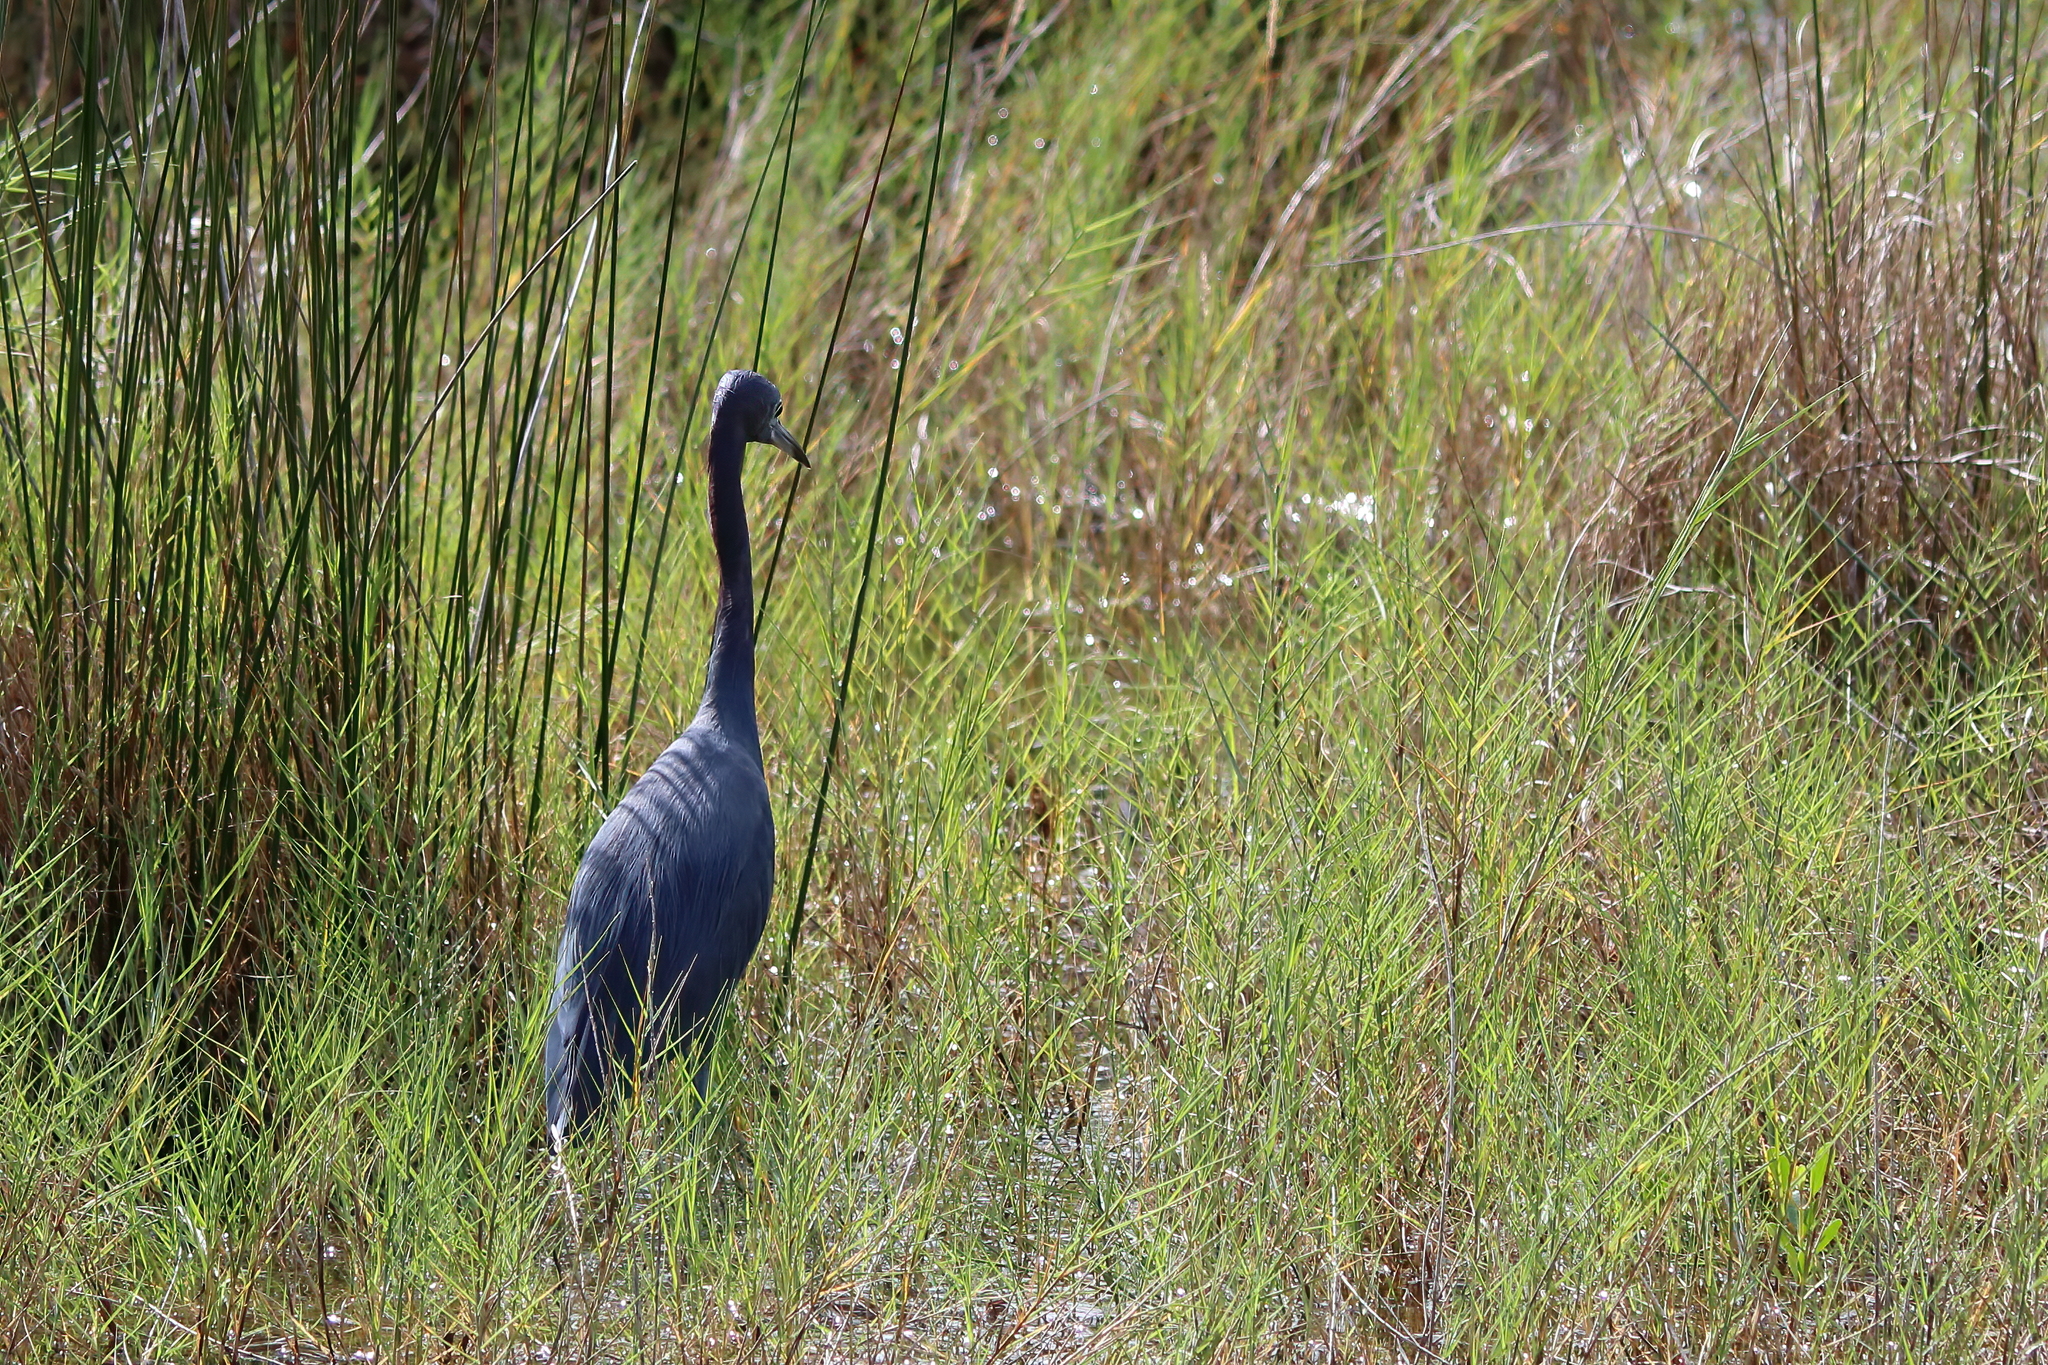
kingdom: Animalia
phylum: Chordata
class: Aves
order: Pelecaniformes
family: Ardeidae
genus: Egretta
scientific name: Egretta caerulea
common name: Little blue heron
